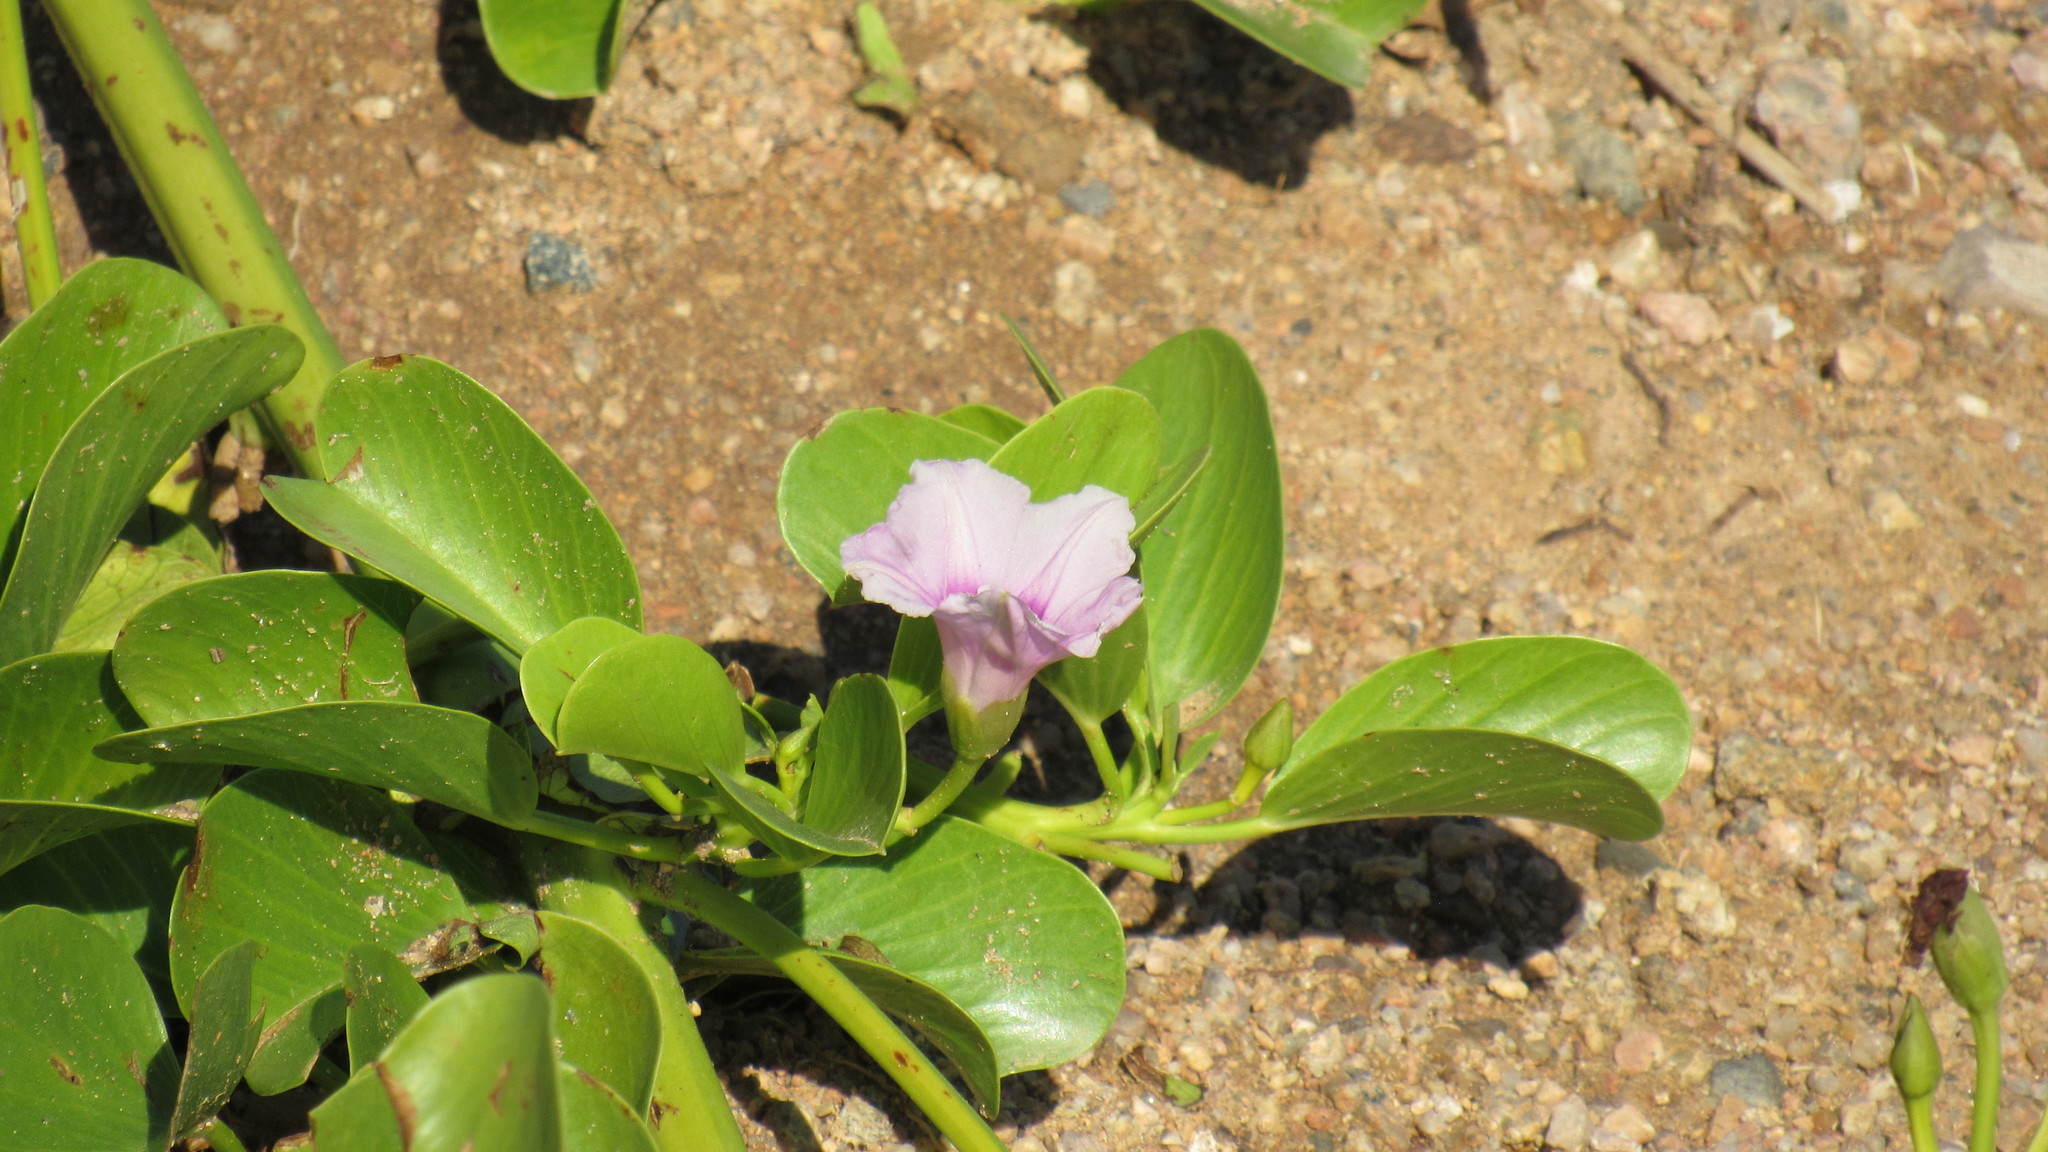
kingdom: Plantae
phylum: Tracheophyta
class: Magnoliopsida
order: Solanales
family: Convolvulaceae
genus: Ipomoea
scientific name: Ipomoea pes-caprae
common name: Beach morning glory
